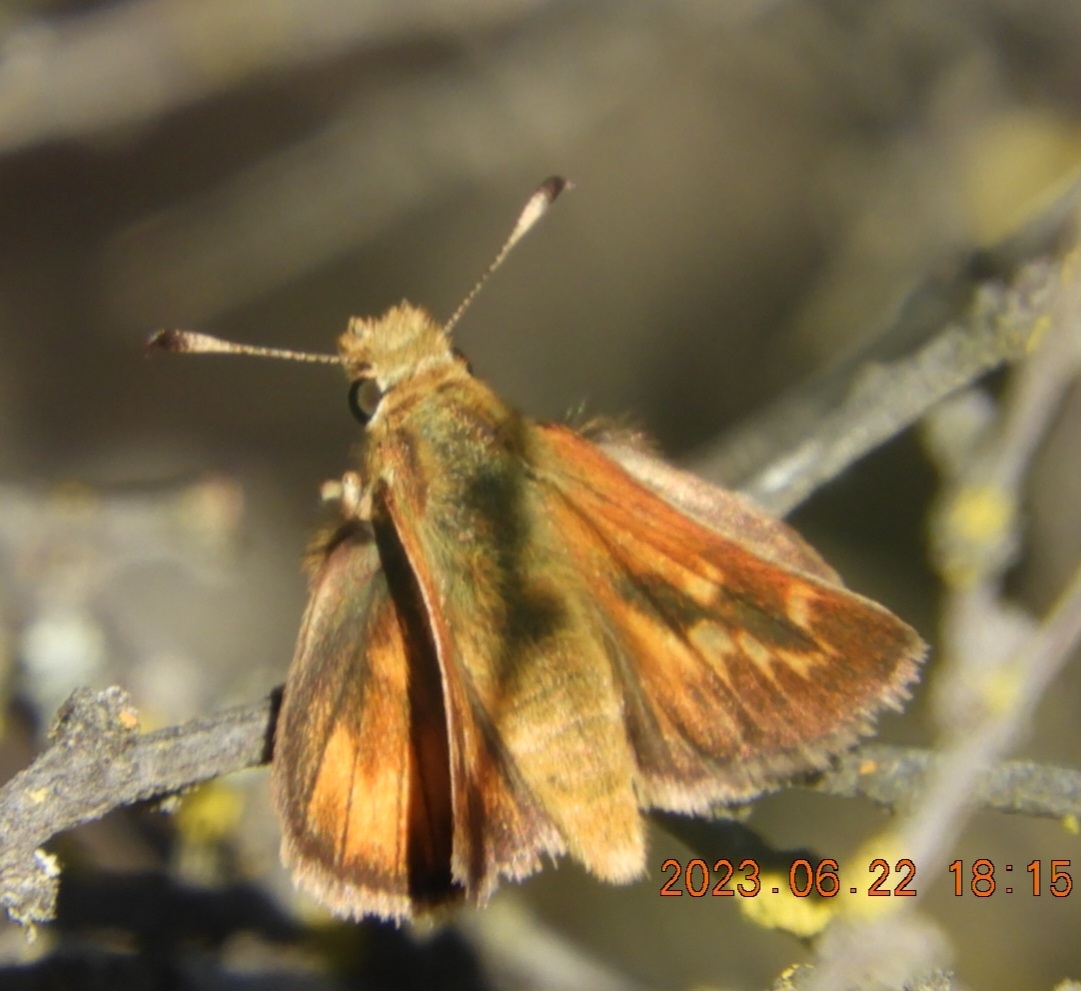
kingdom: Animalia
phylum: Arthropoda
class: Insecta
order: Lepidoptera
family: Hesperiidae
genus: Ochlodes
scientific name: Ochlodes agricola
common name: Rural skipper
